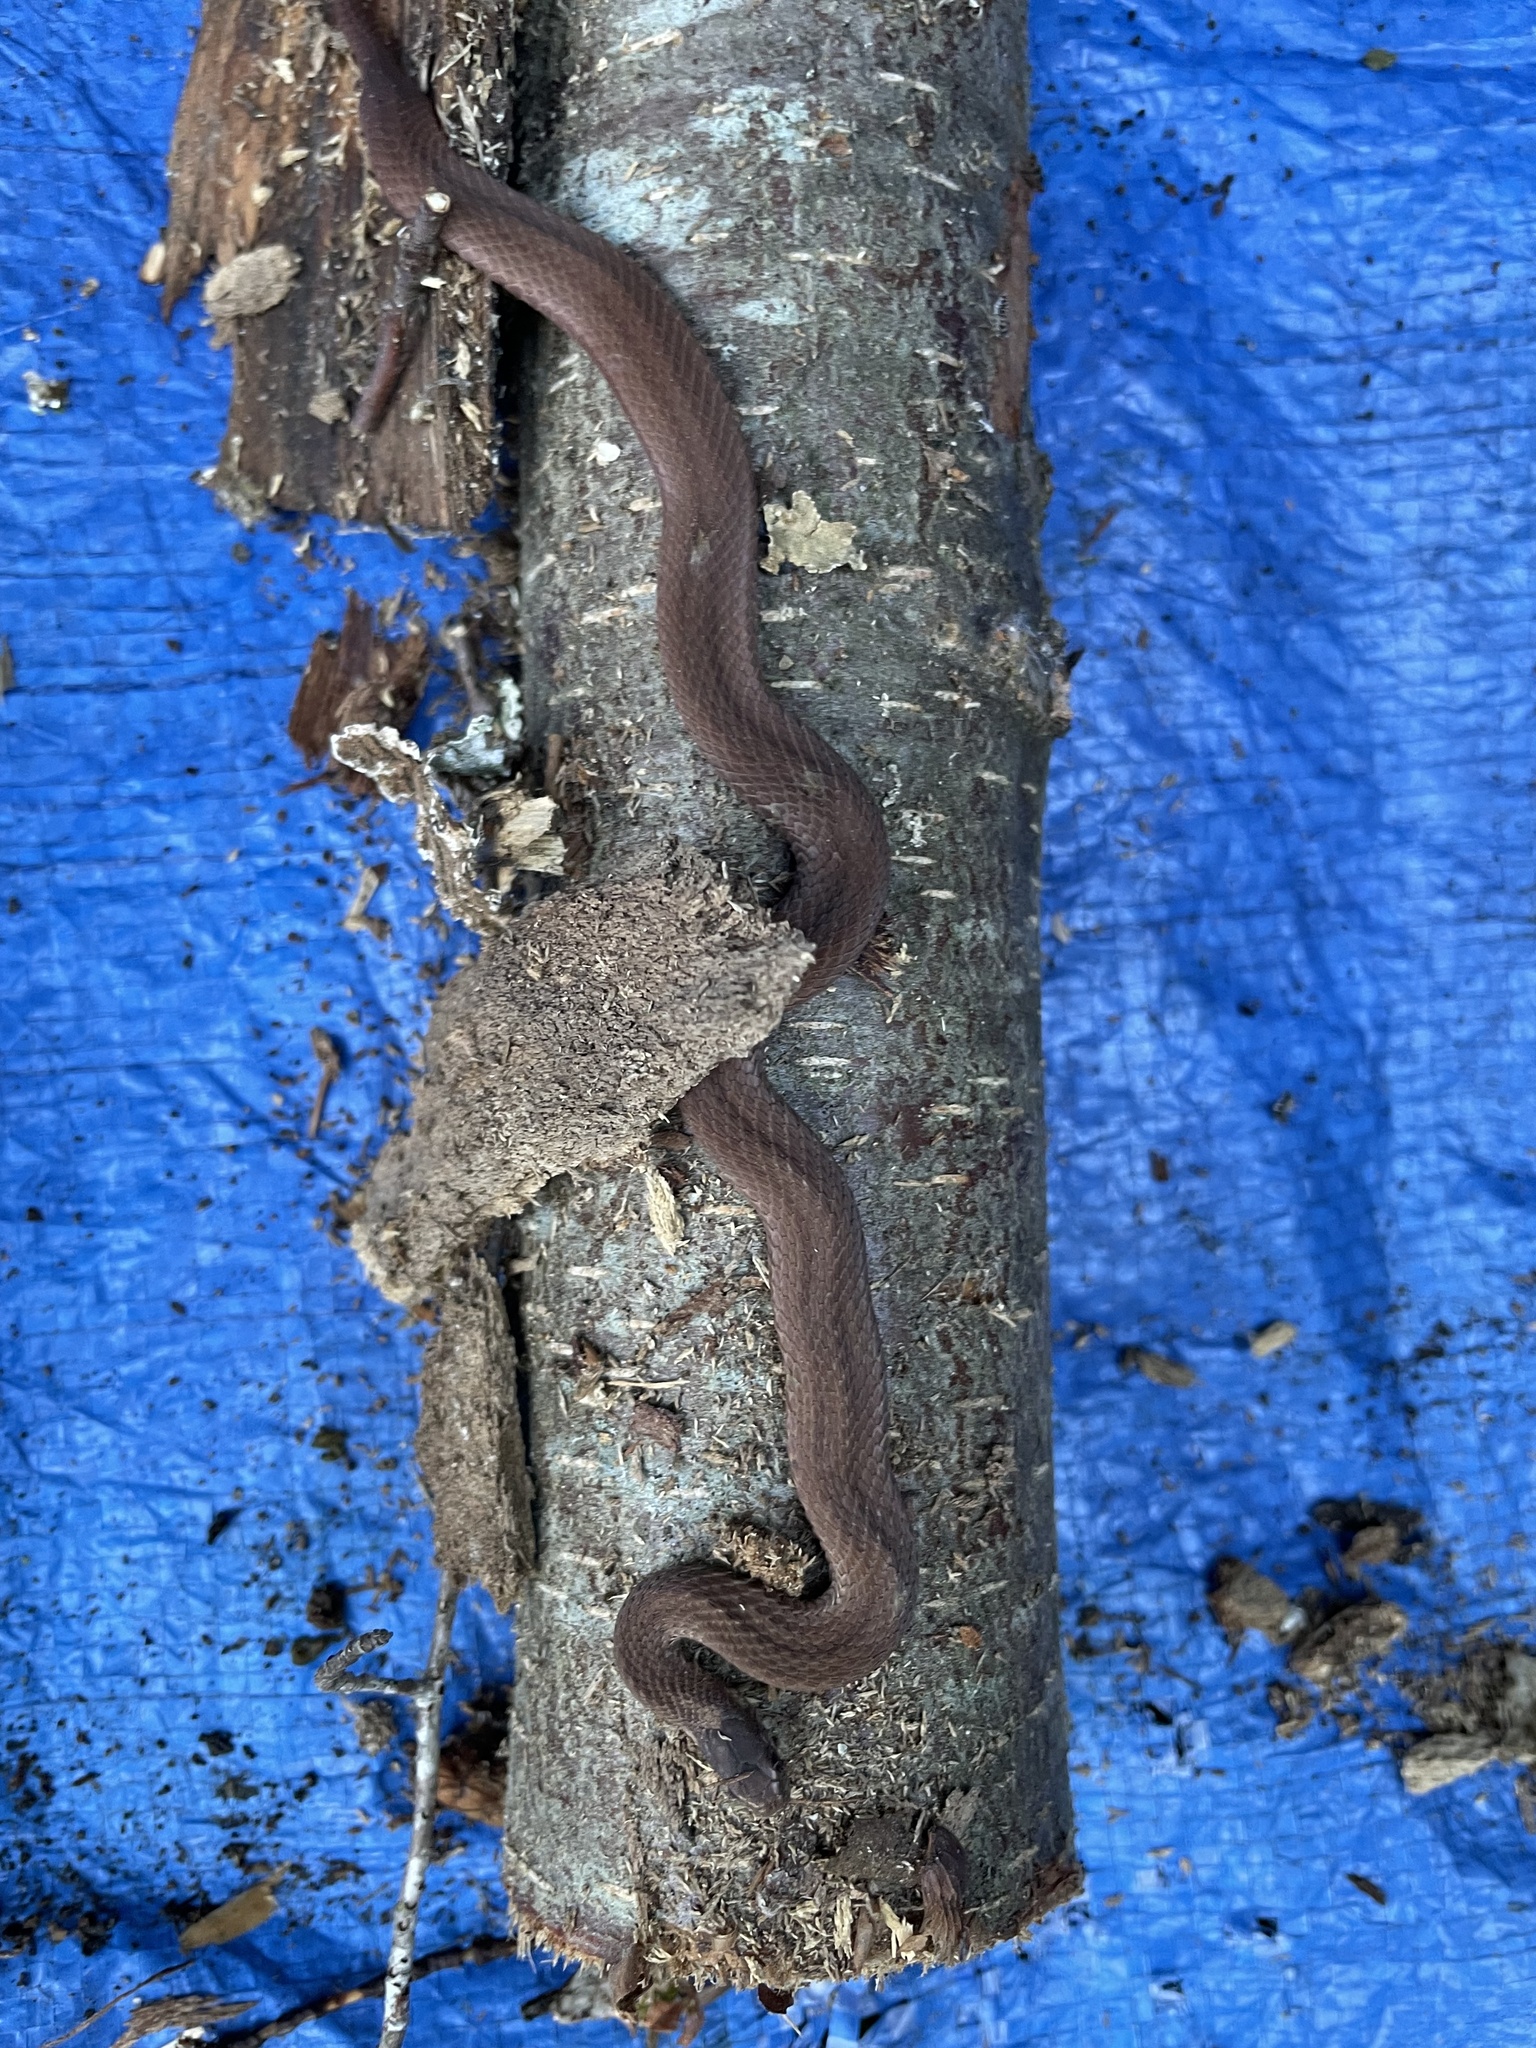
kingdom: Animalia
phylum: Chordata
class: Squamata
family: Colubridae
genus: Storeria
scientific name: Storeria occipitomaculata
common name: Redbelly snake
